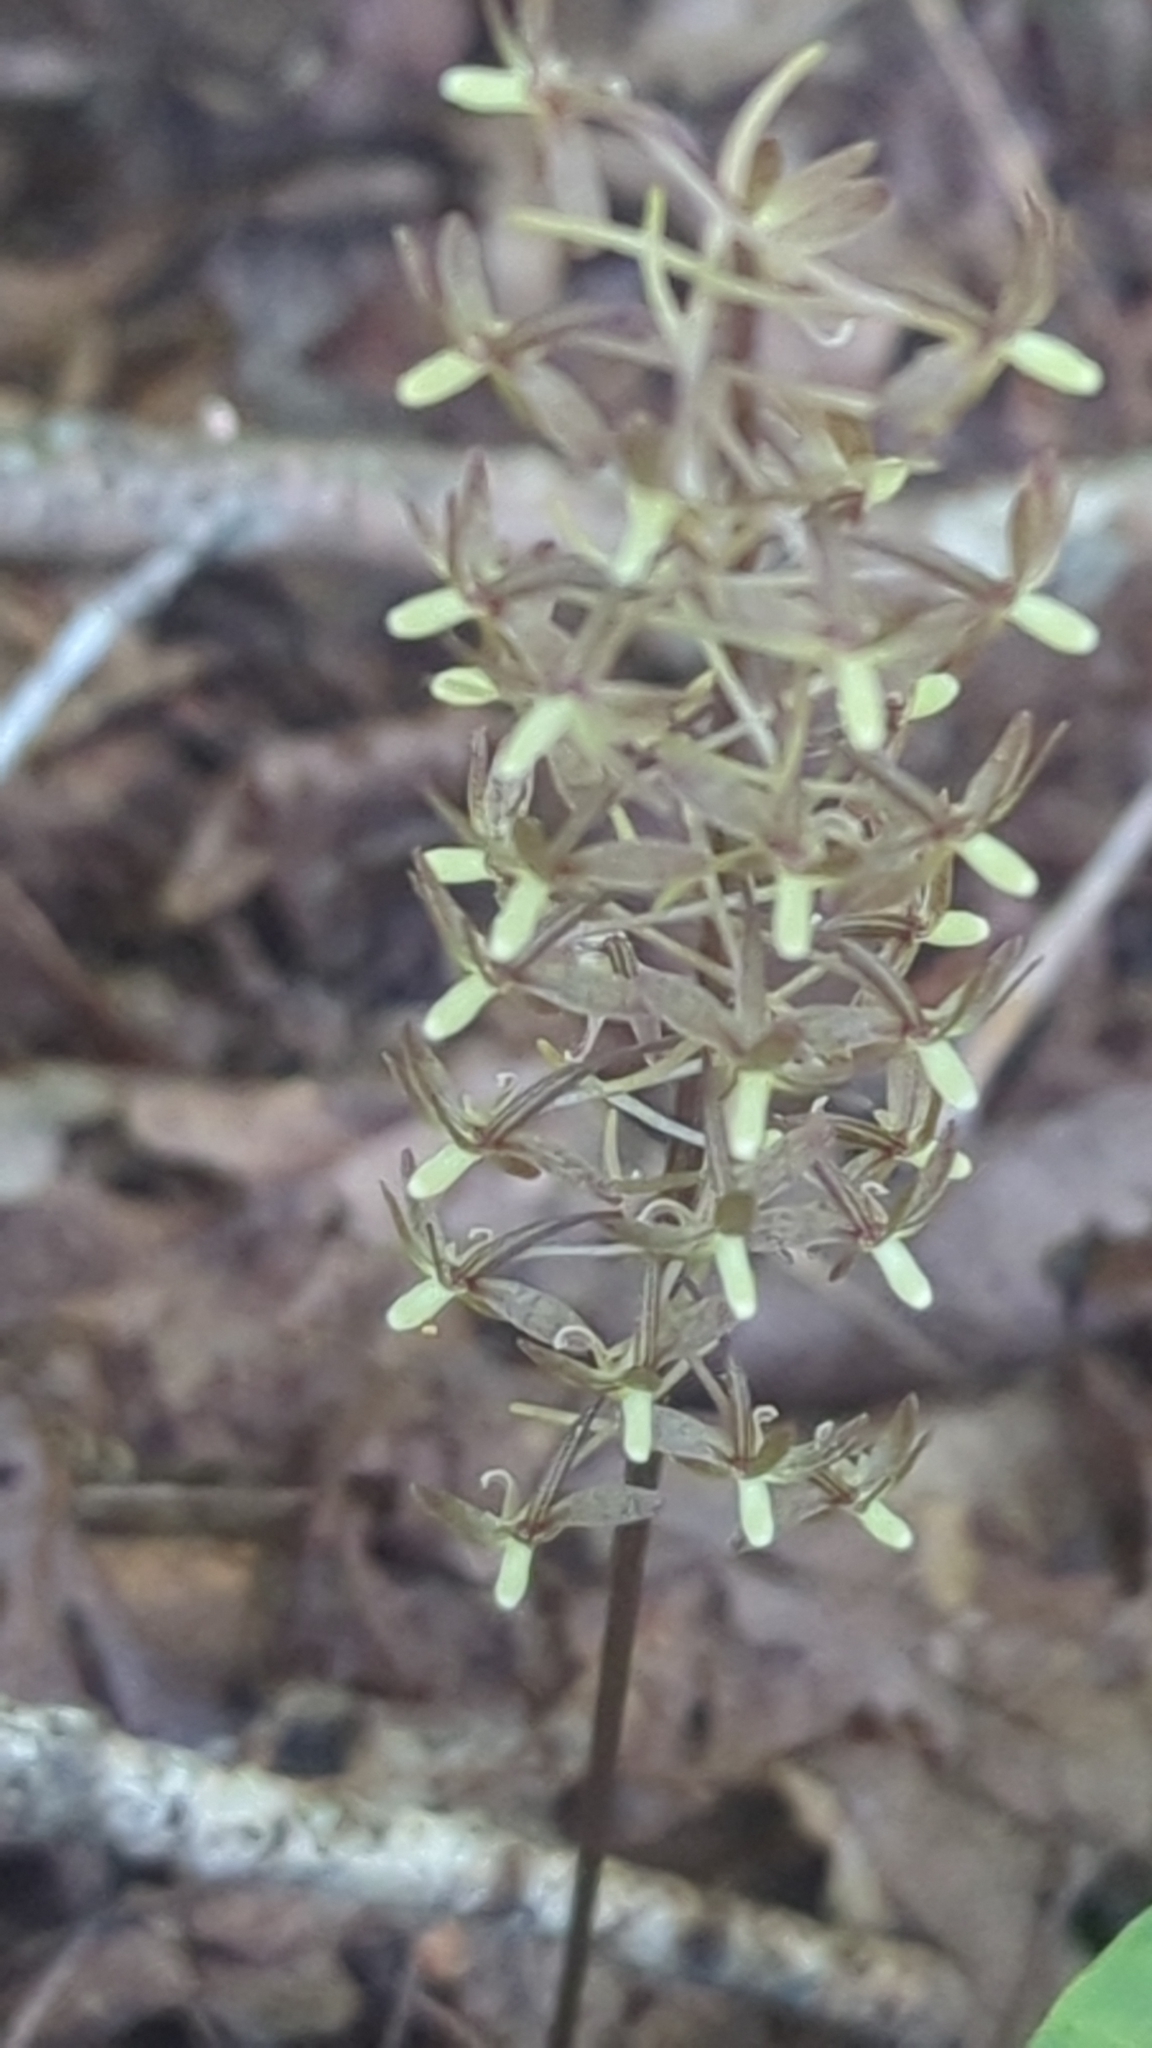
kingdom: Plantae
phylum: Tracheophyta
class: Liliopsida
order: Asparagales
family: Orchidaceae
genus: Tipularia
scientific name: Tipularia discolor
